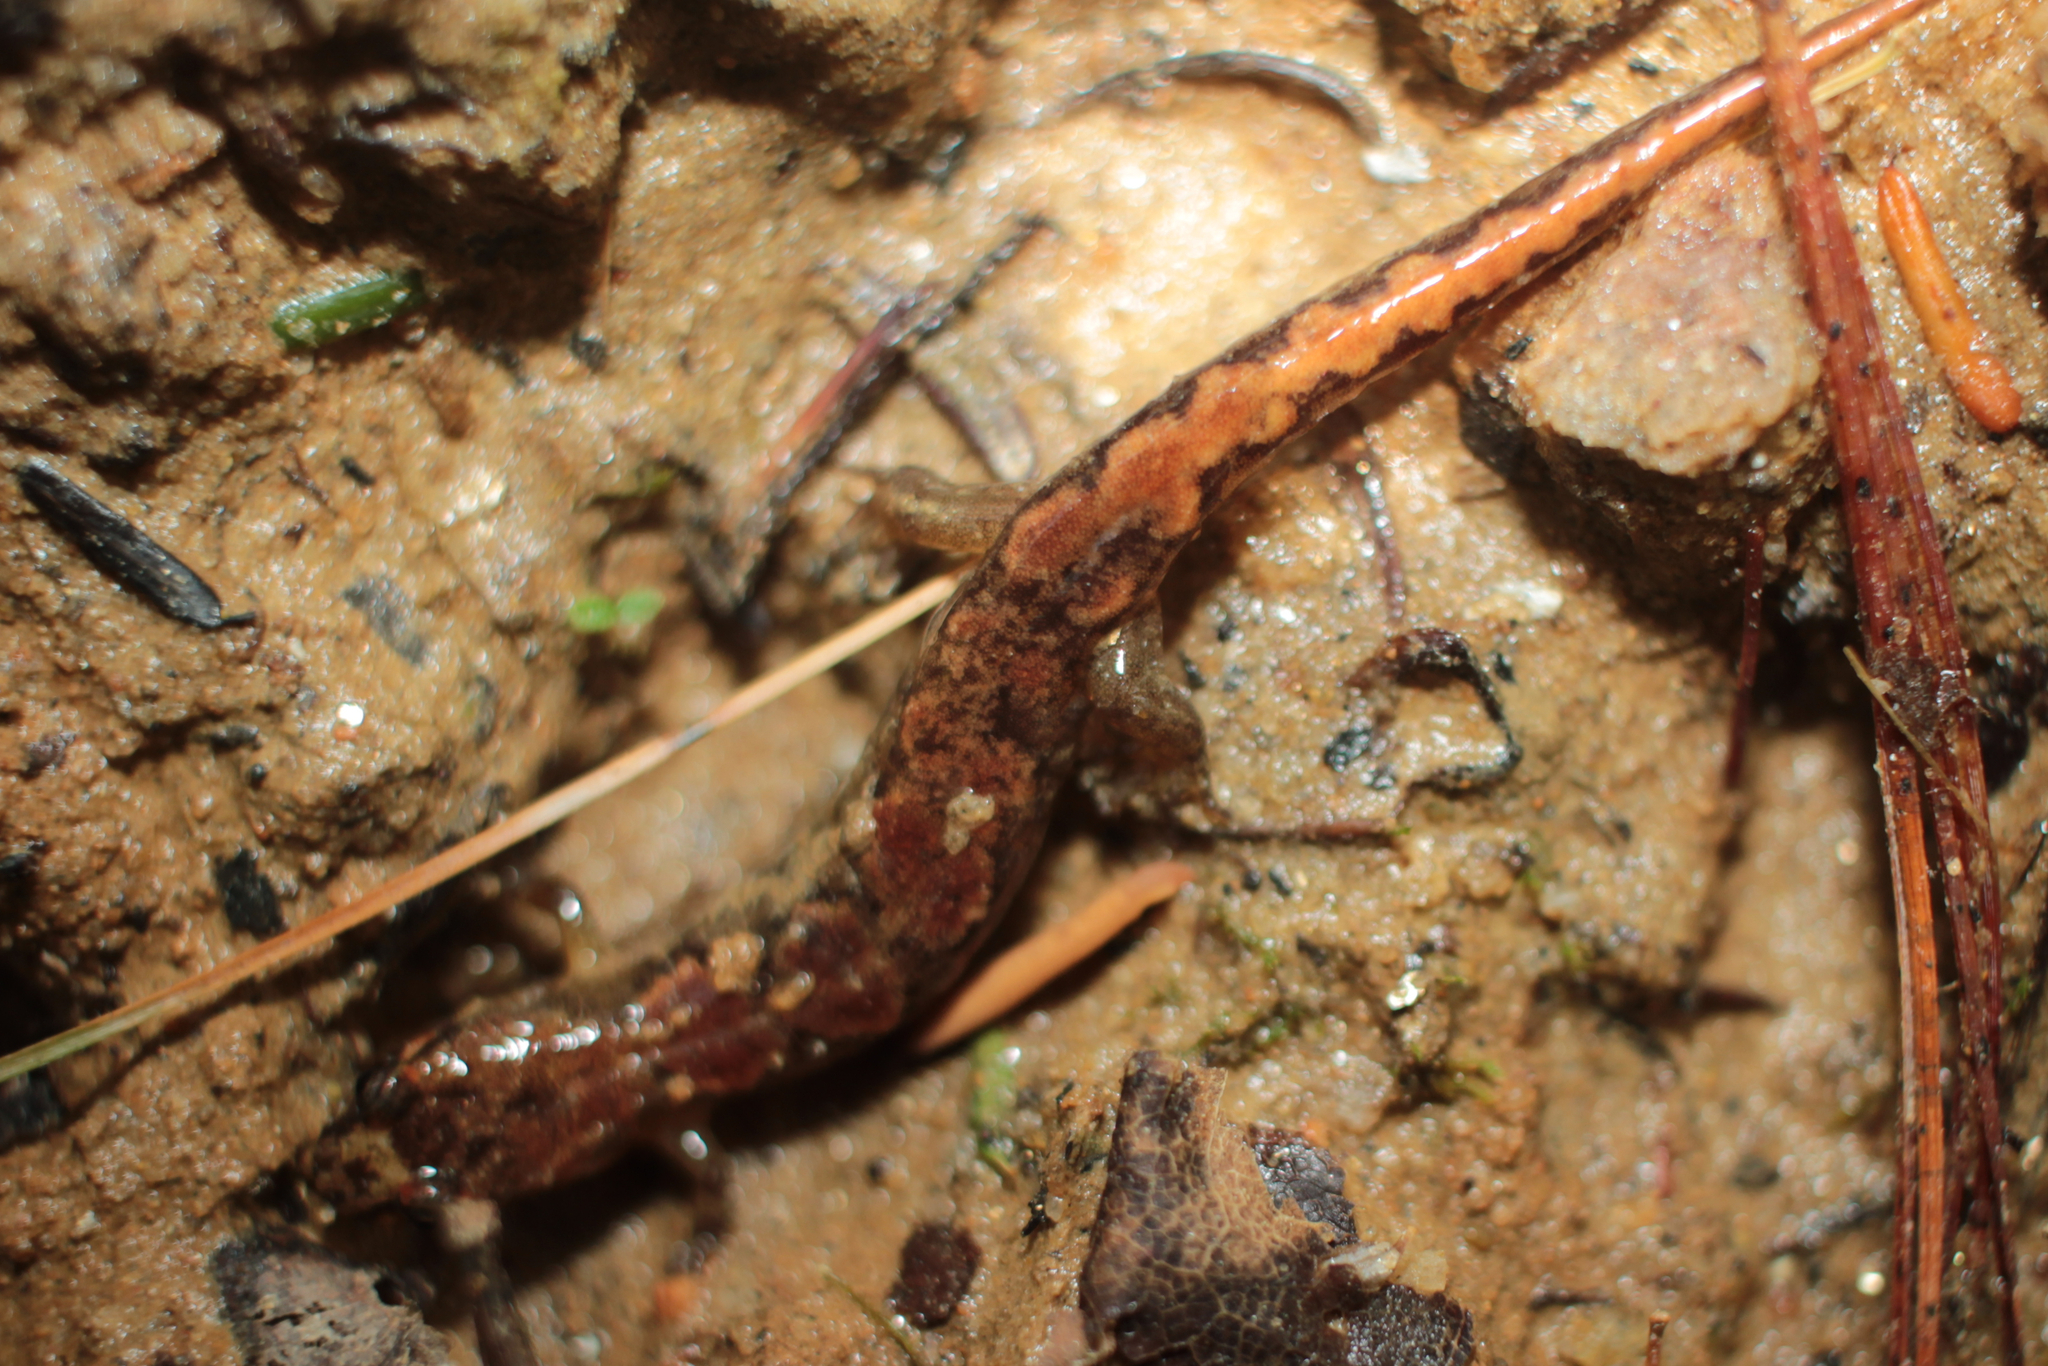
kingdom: Animalia
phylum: Chordata
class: Amphibia
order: Caudata
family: Plethodontidae
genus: Desmognathus
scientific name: Desmognathus ocoee
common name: Ocoee salamander
